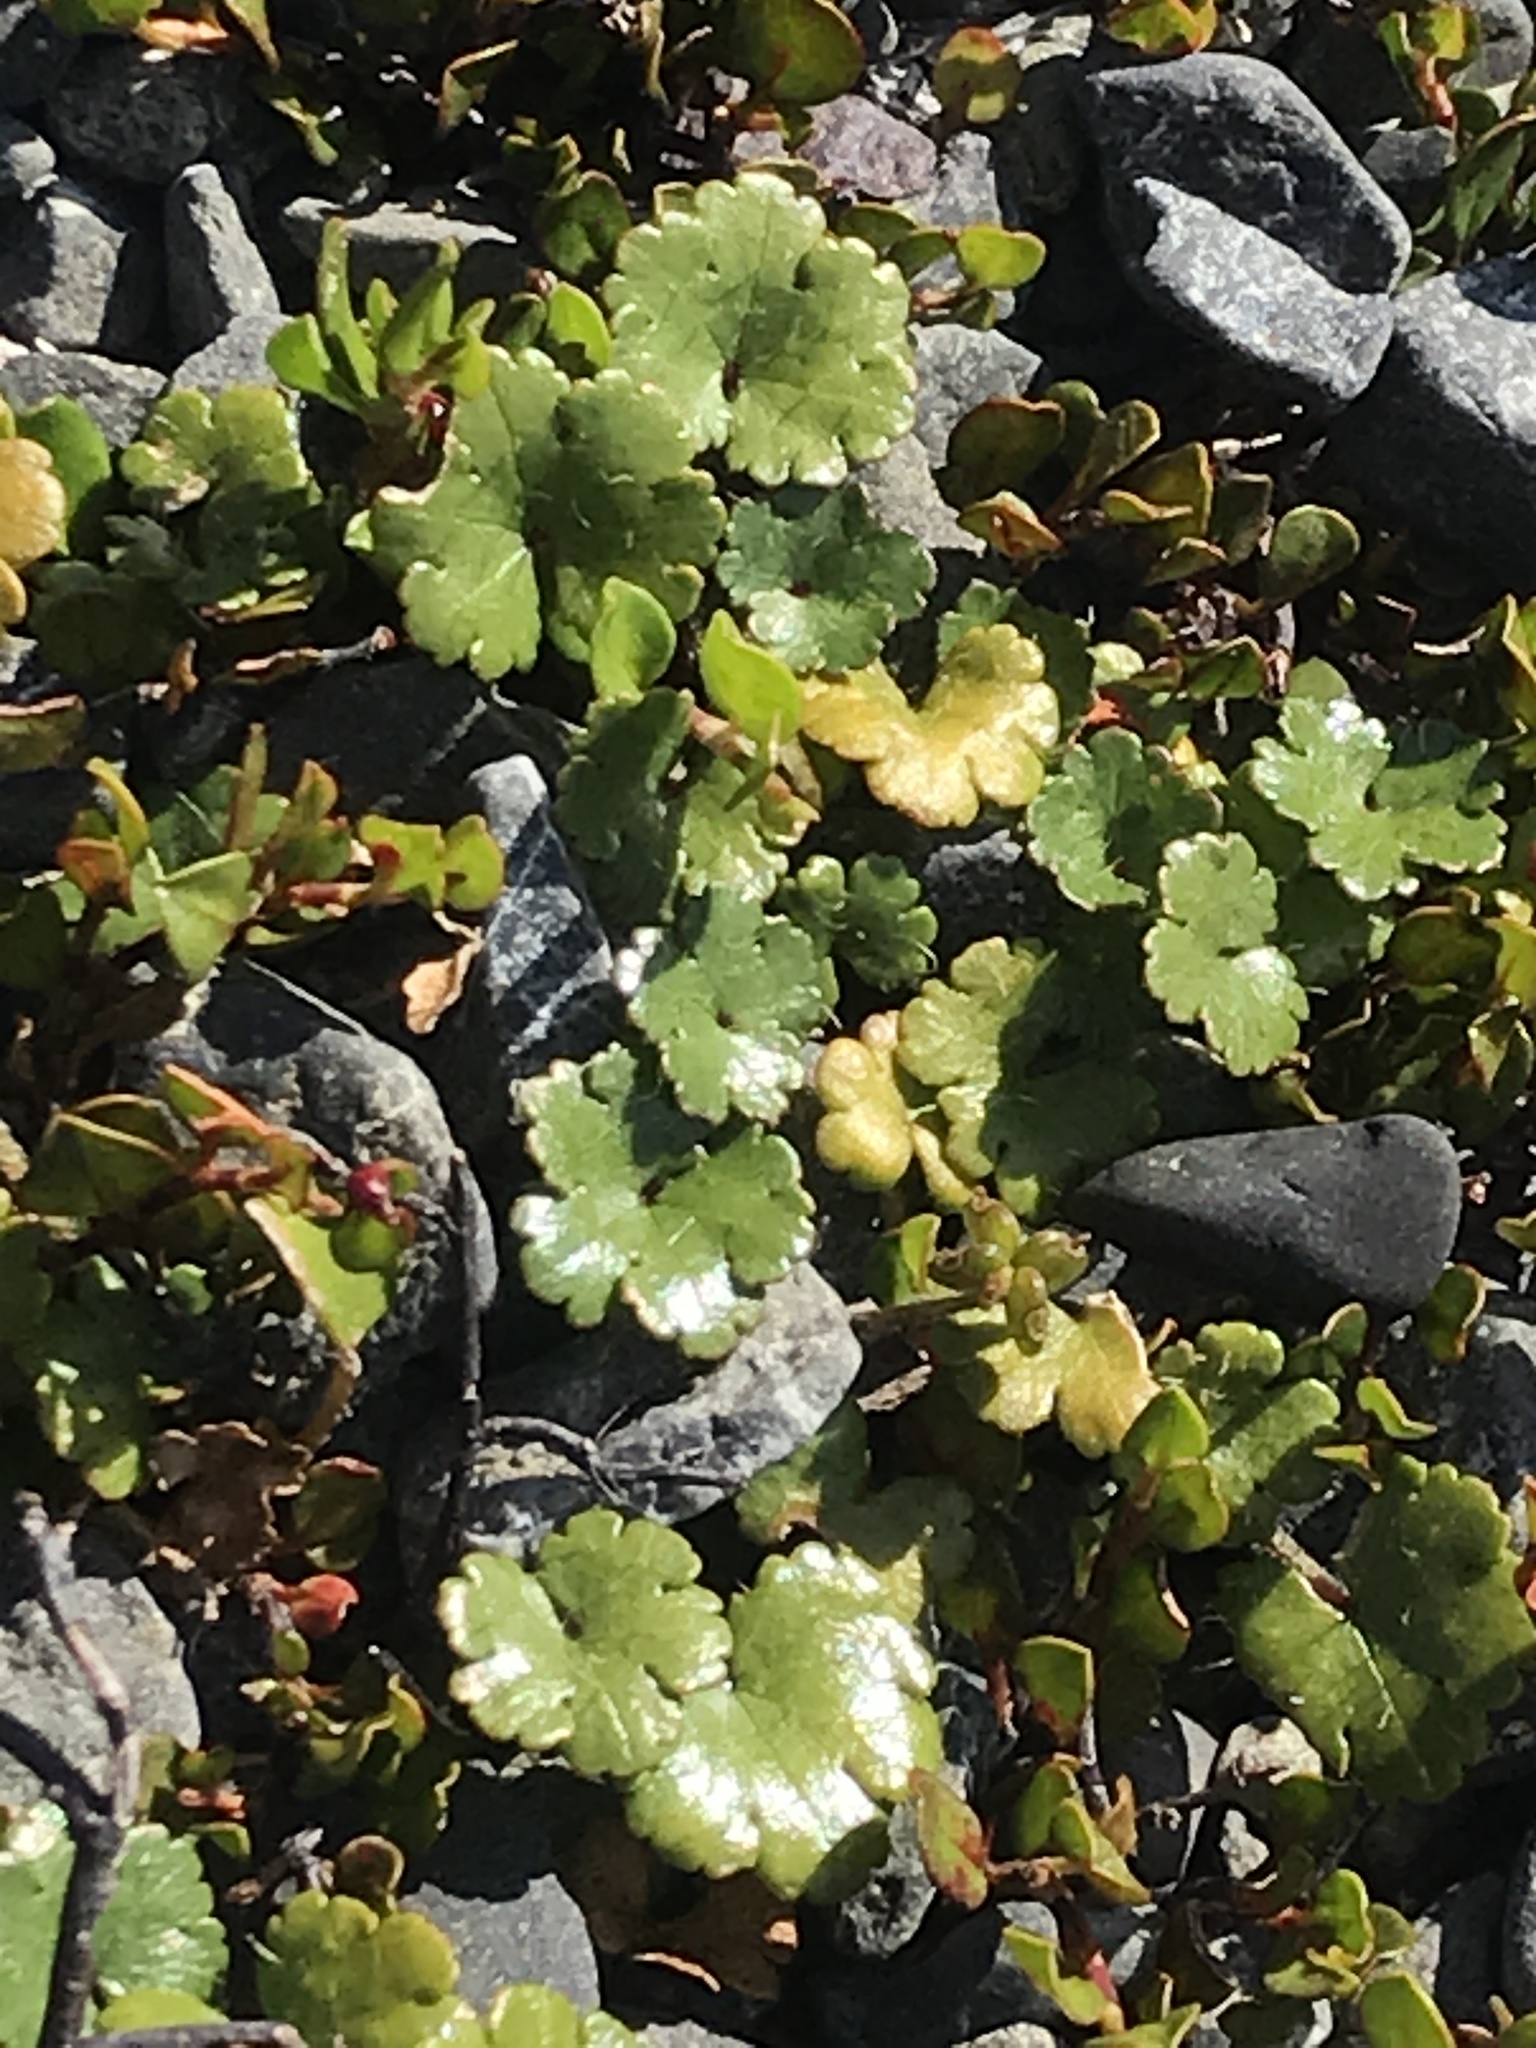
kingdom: Plantae
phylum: Tracheophyta
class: Magnoliopsida
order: Apiales
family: Araliaceae
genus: Hydrocotyle
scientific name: Hydrocotyle novae-zeelandiae
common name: New zealand pennywort
